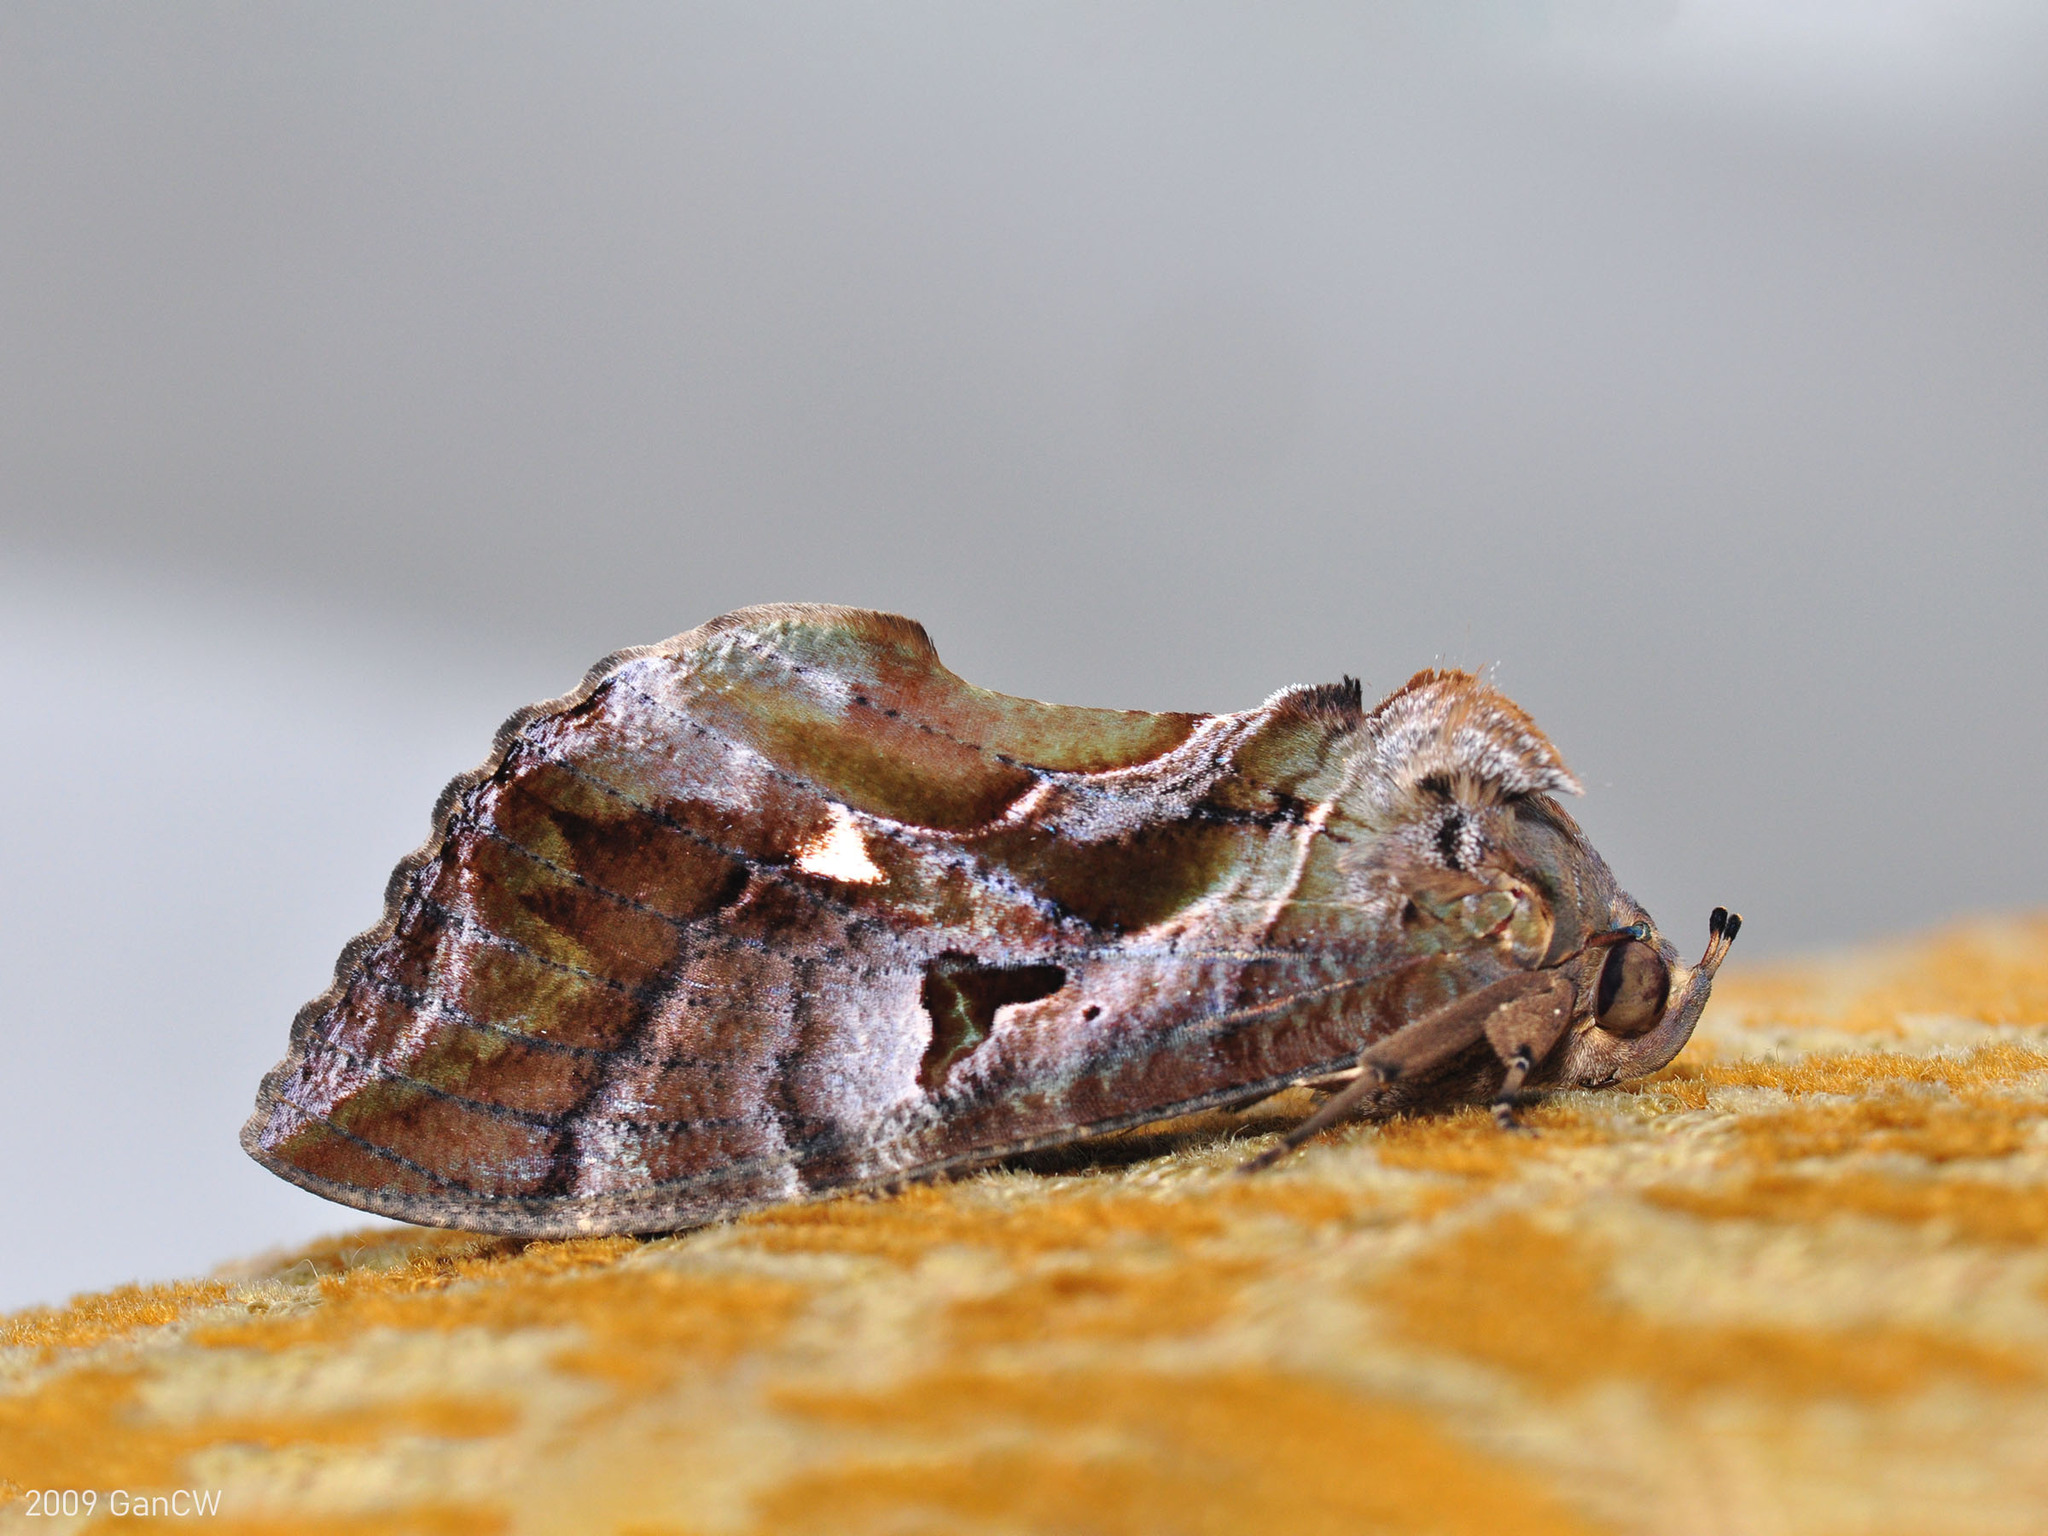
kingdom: Animalia
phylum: Arthropoda
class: Insecta
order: Lepidoptera
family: Erebidae
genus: Eudocima
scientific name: Eudocima phalonia
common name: Wasp
